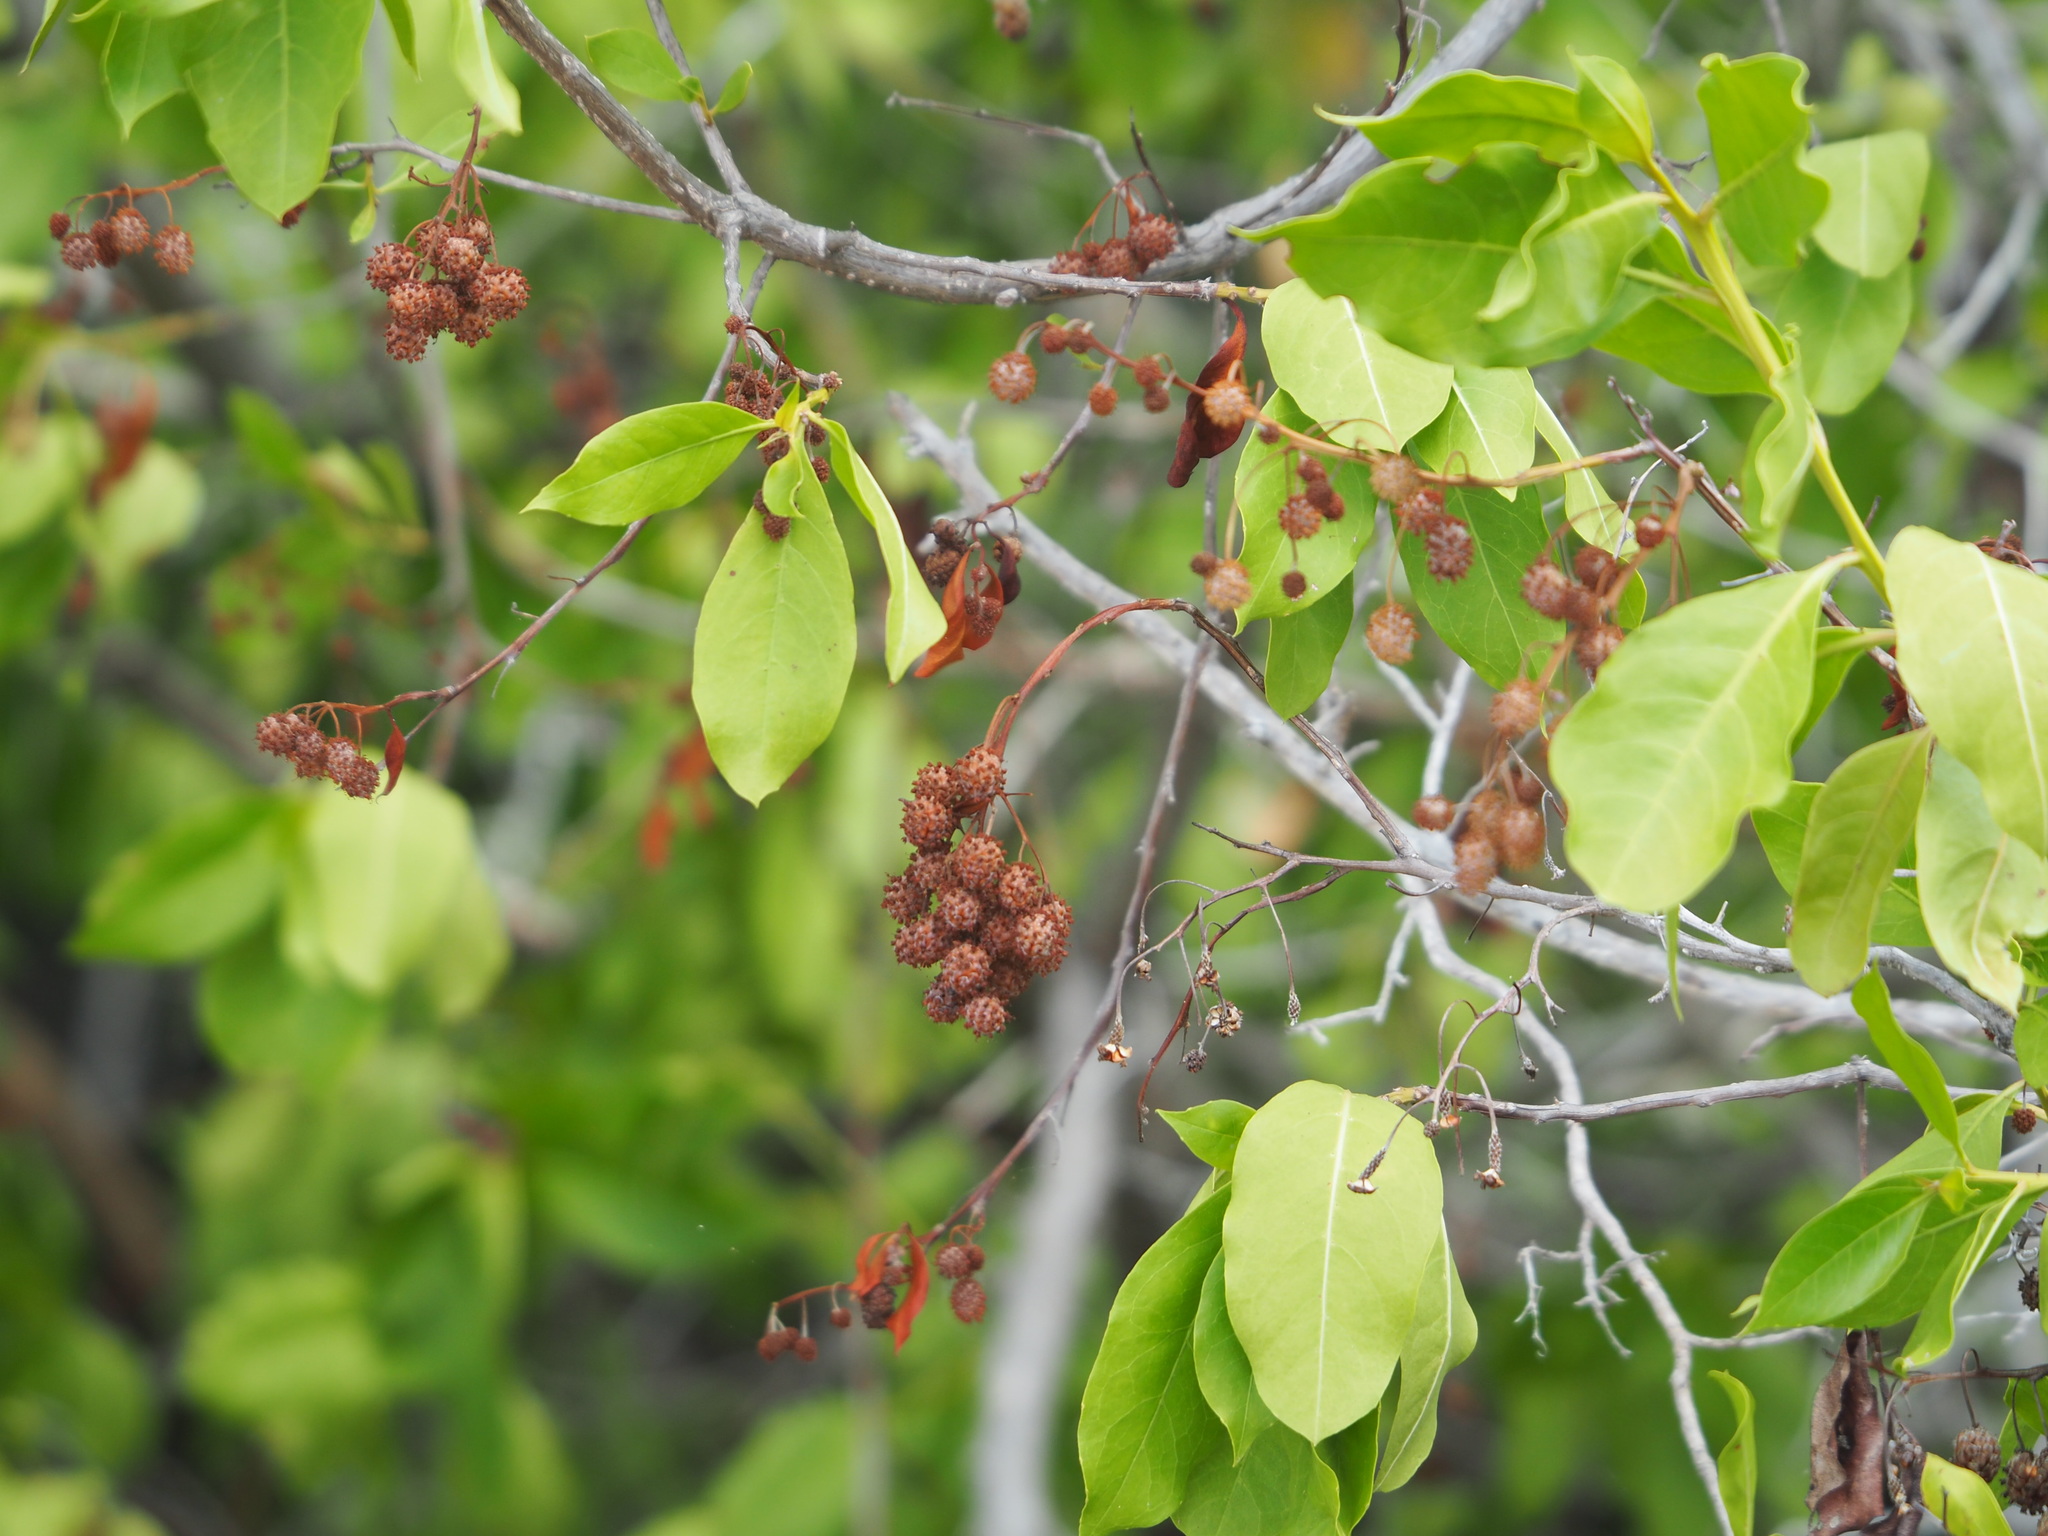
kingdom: Plantae
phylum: Tracheophyta
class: Magnoliopsida
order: Myrtales
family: Combretaceae
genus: Conocarpus
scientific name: Conocarpus erectus
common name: Button mangrove
